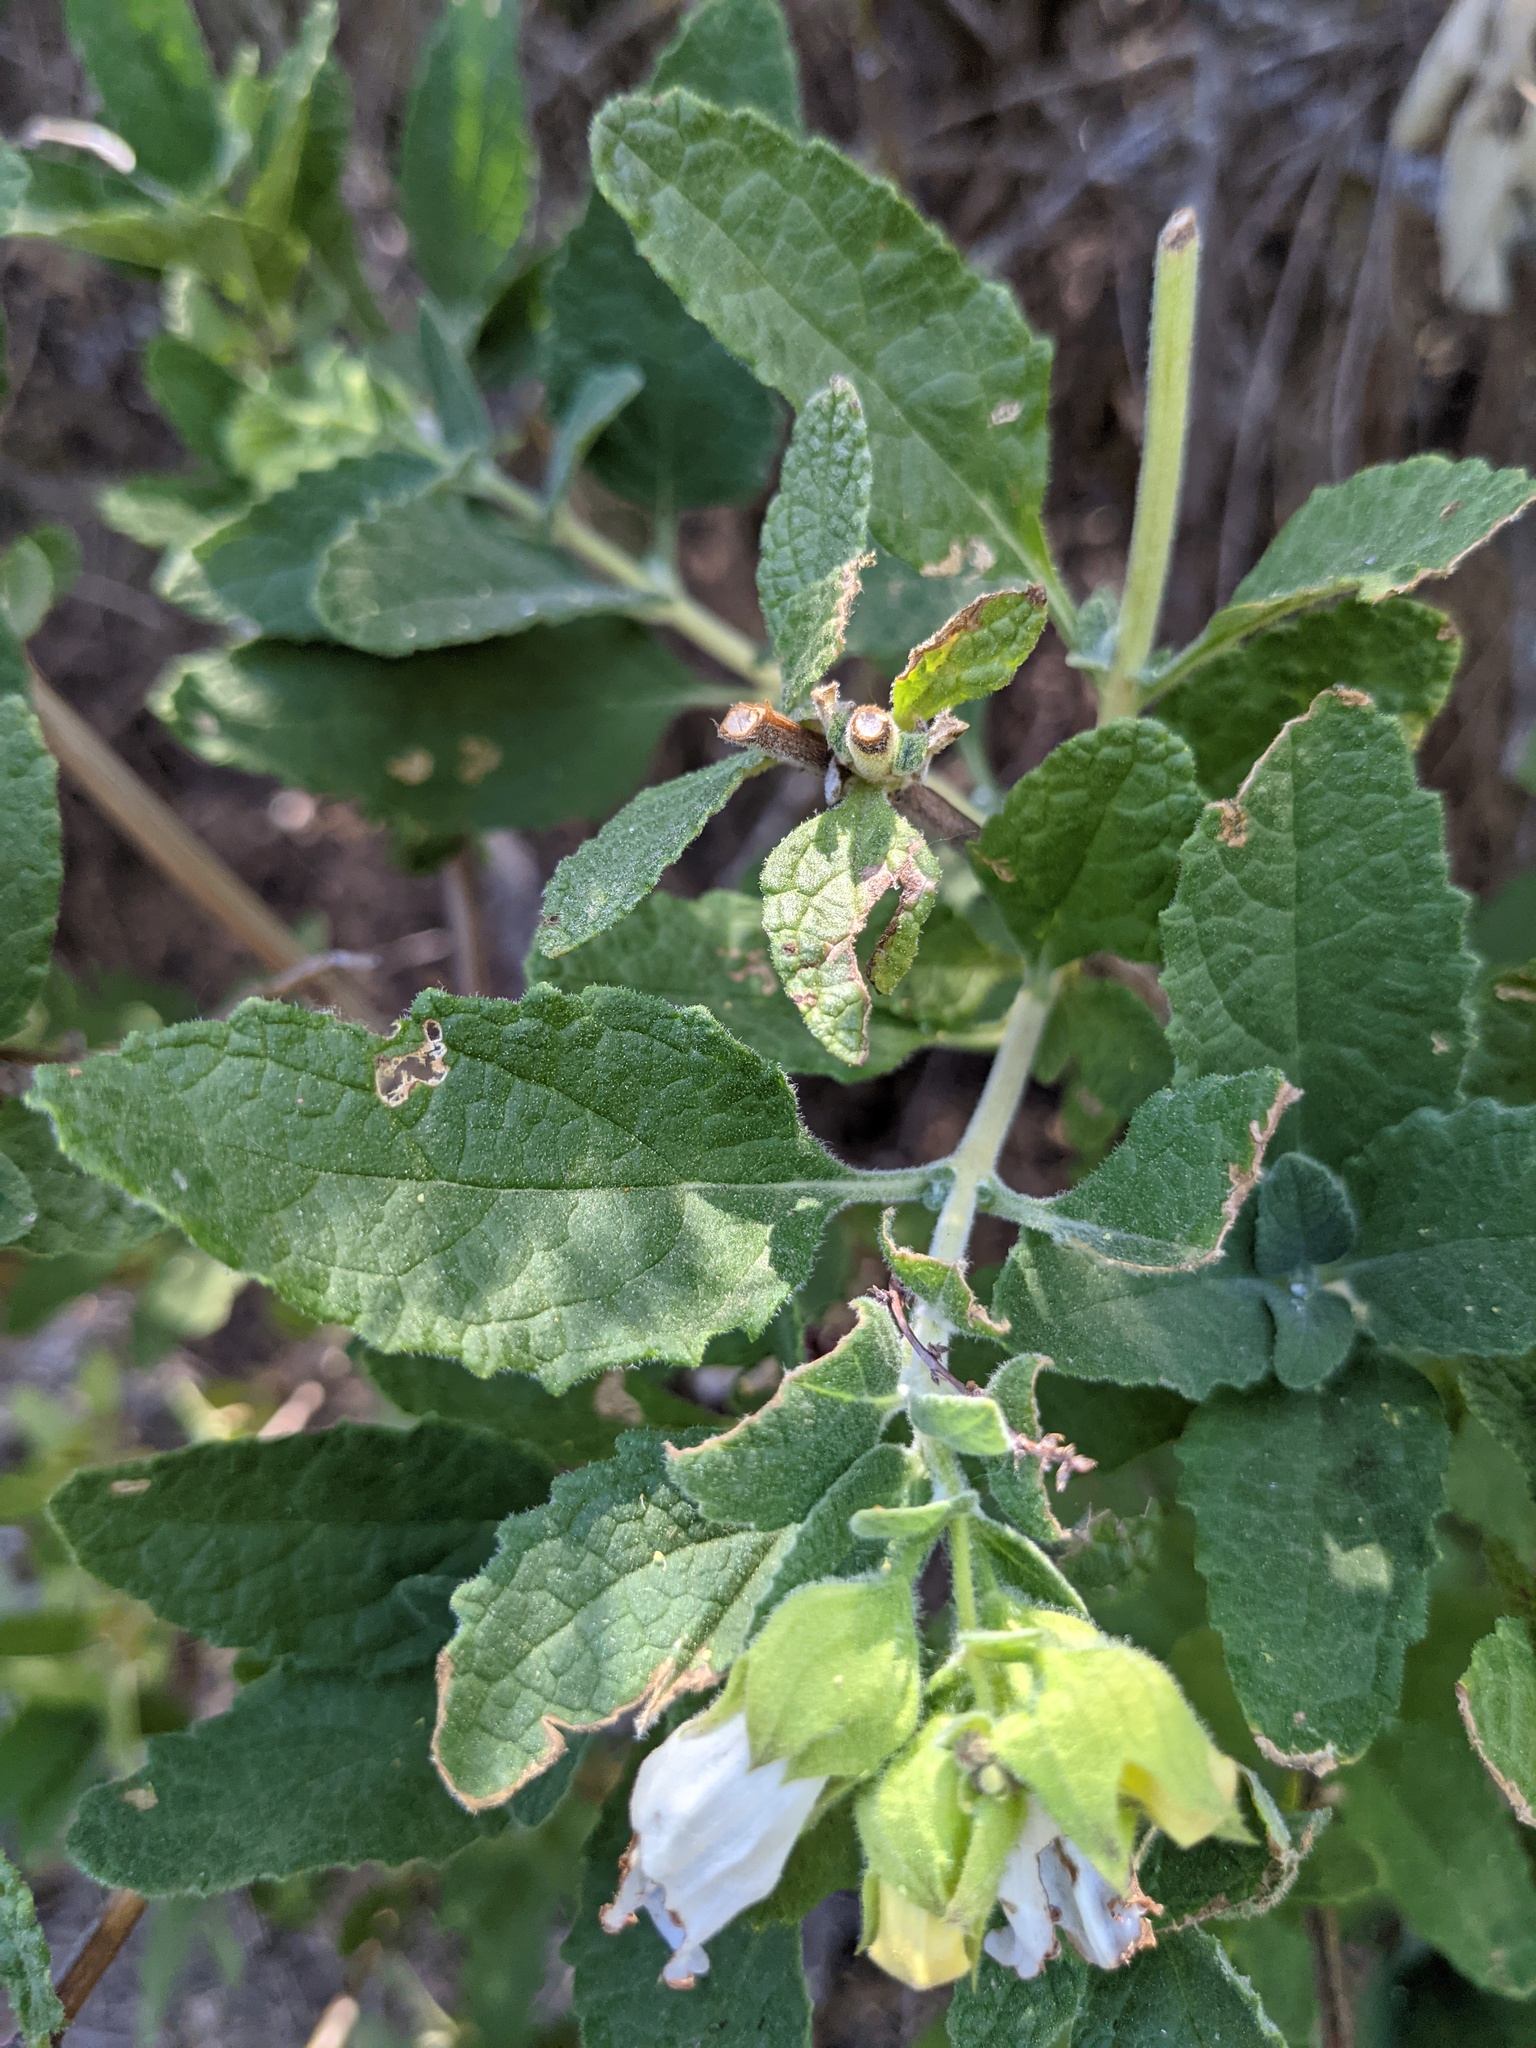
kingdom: Plantae
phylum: Tracheophyta
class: Magnoliopsida
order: Lamiales
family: Lamiaceae
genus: Lepechinia
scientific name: Lepechinia calycina
